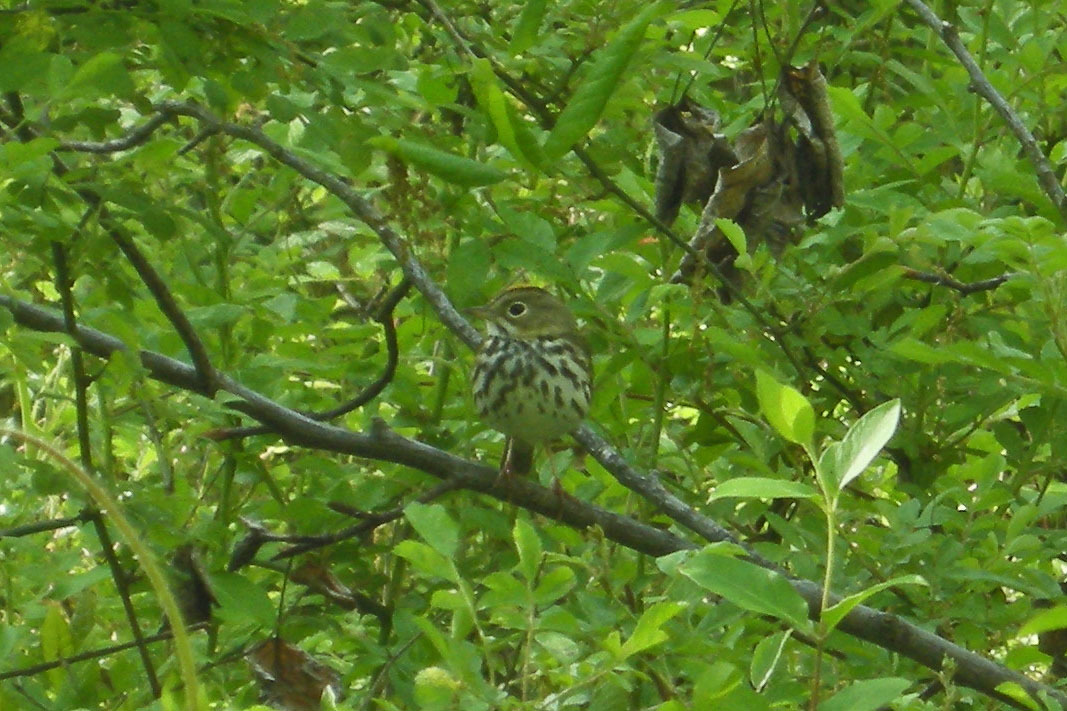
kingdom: Animalia
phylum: Chordata
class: Aves
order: Passeriformes
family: Parulidae
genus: Seiurus
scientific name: Seiurus aurocapilla
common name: Ovenbird
